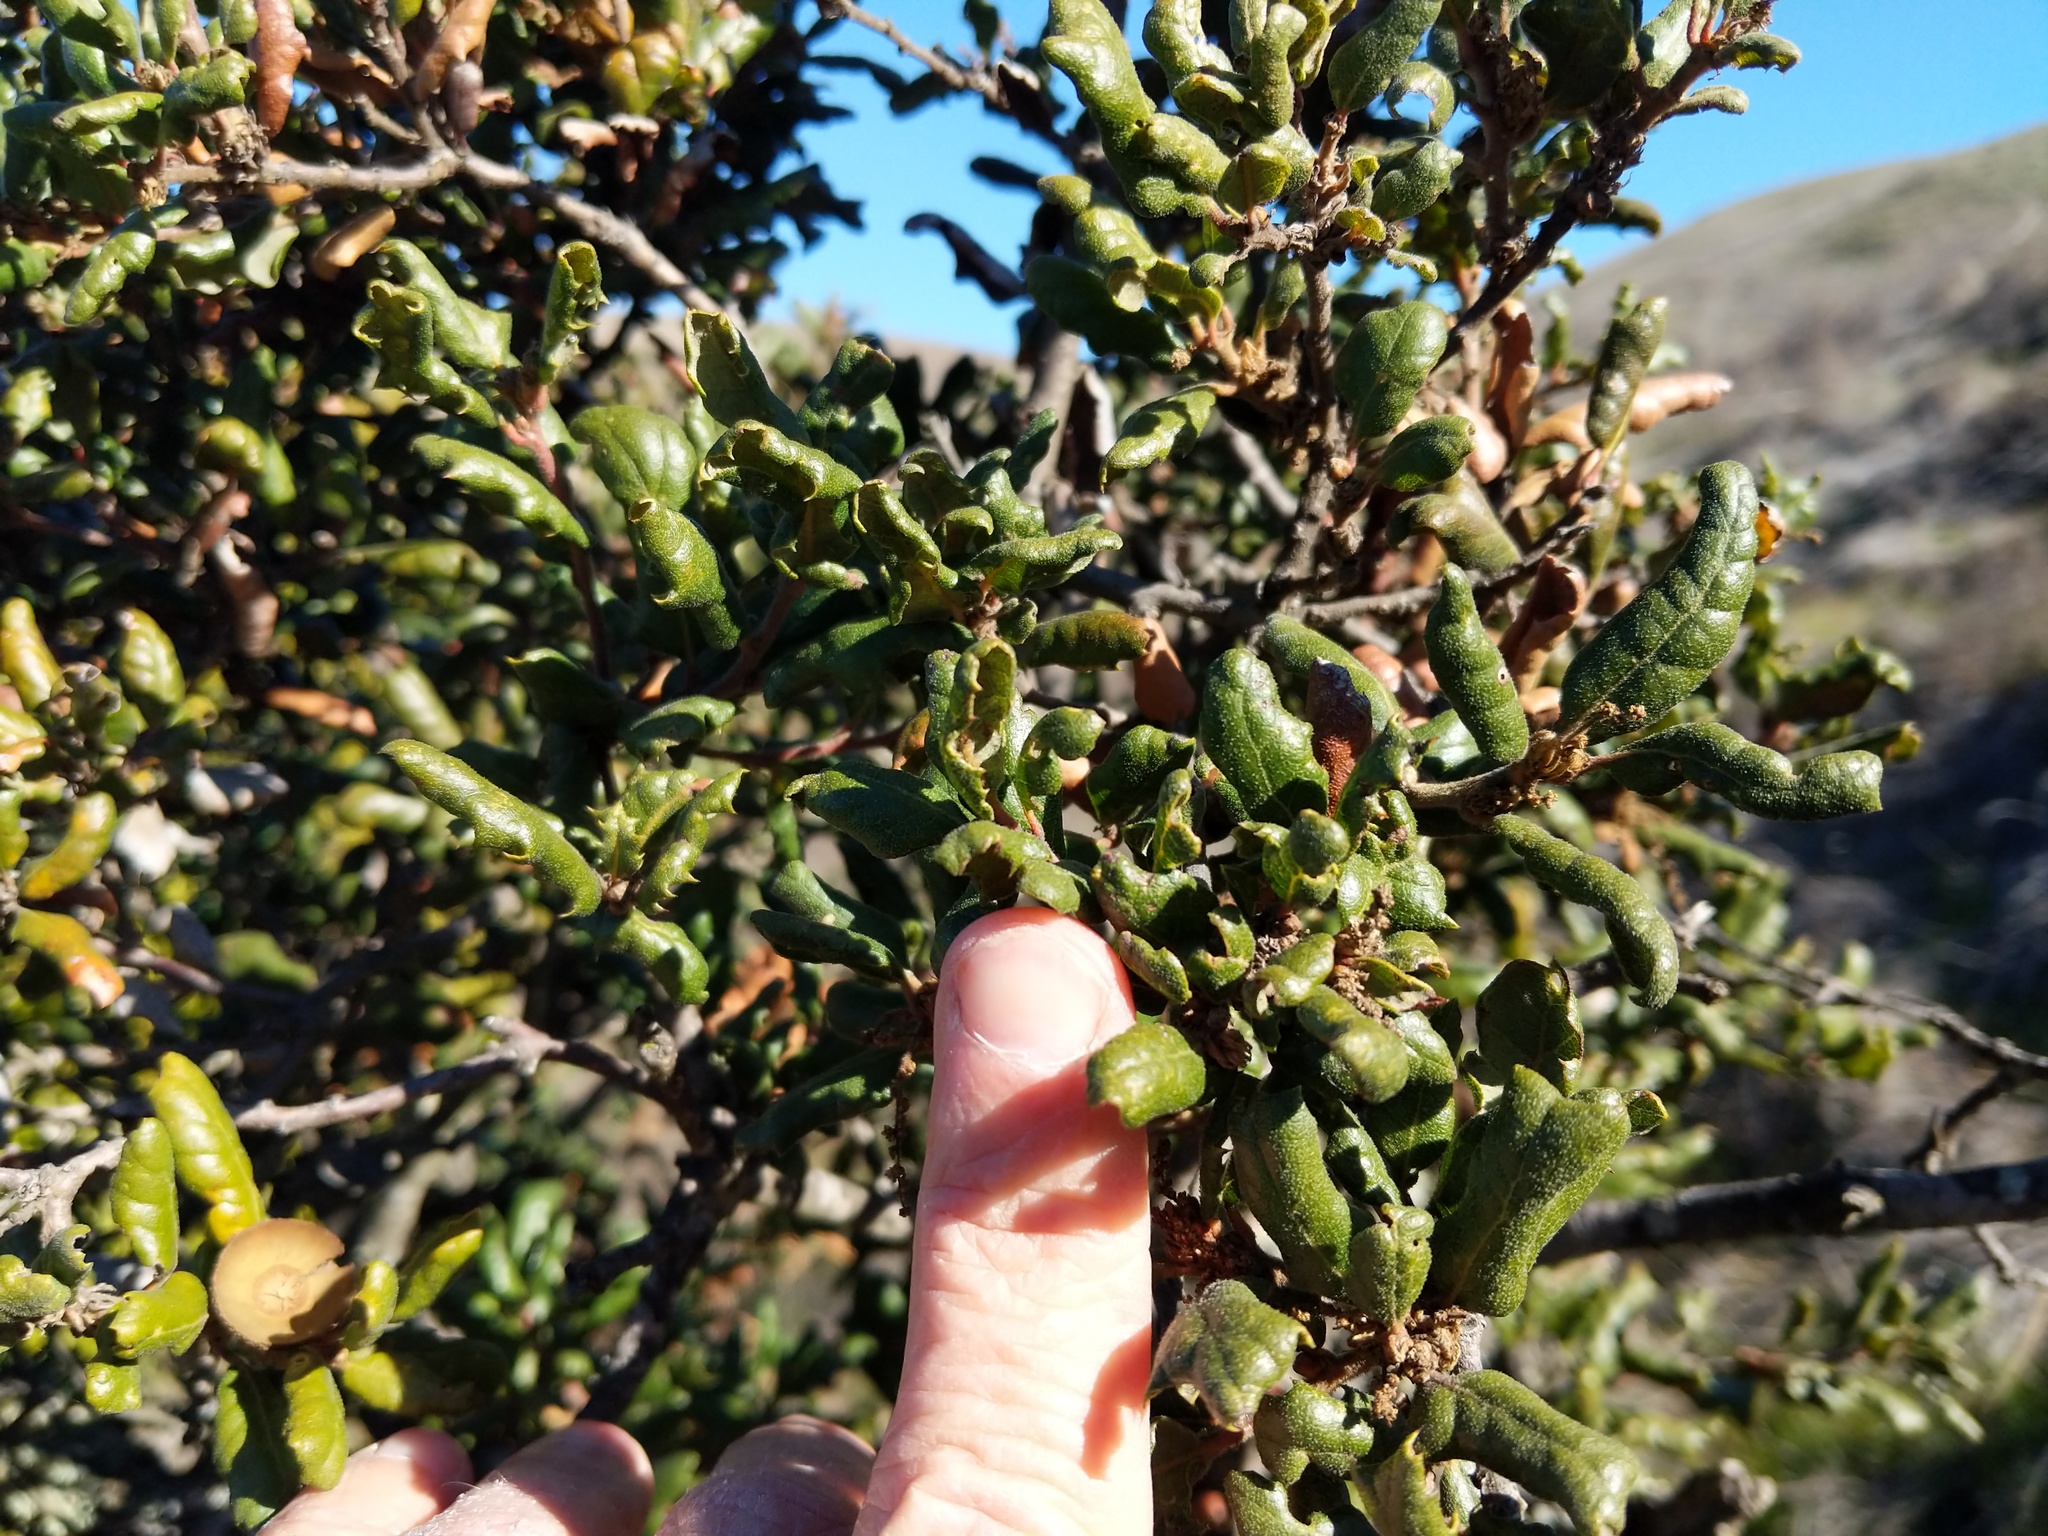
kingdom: Plantae
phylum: Tracheophyta
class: Magnoliopsida
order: Fagales
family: Fagaceae
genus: Quercus
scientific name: Quercus durata
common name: Leather oak
